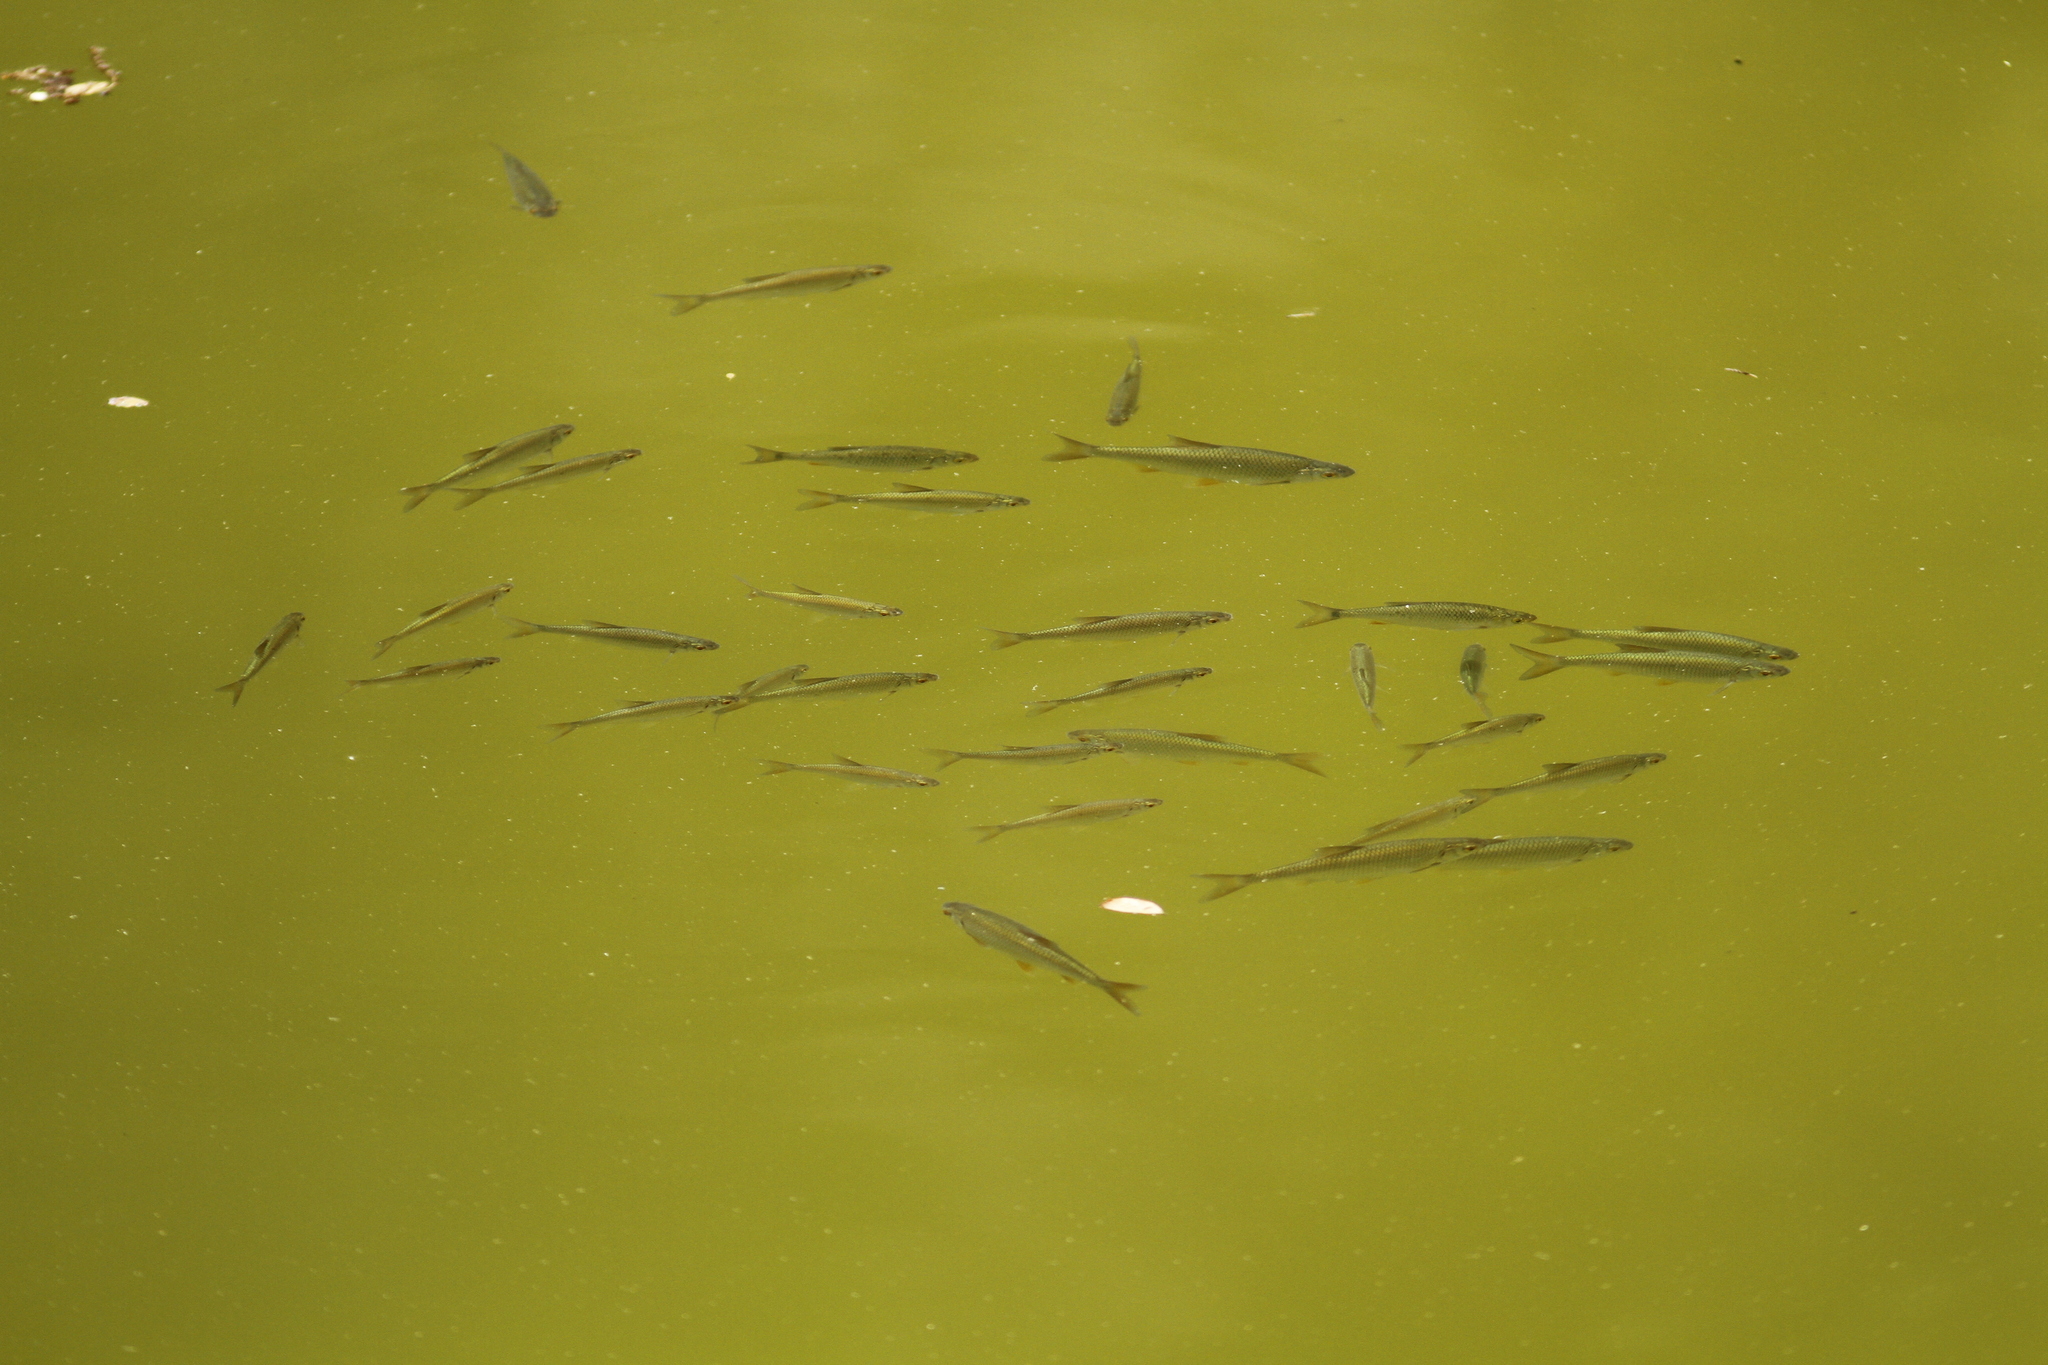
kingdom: Animalia
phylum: Chordata
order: Cypriniformes
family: Cyprinidae
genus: Rutilus
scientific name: Rutilus rutilus
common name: Roach
